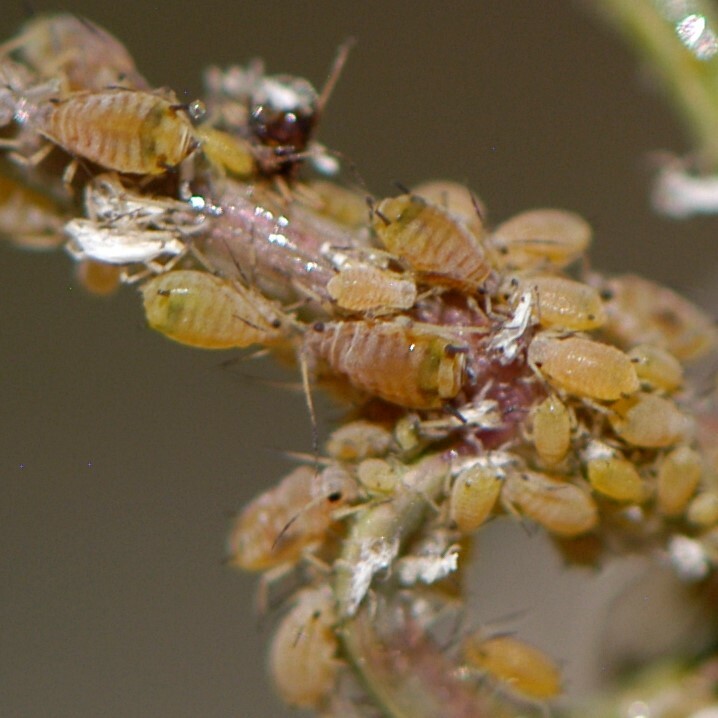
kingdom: Animalia
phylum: Arthropoda
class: Insecta
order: Hemiptera
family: Aphididae
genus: Aphis
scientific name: Aphis asclepiadis
